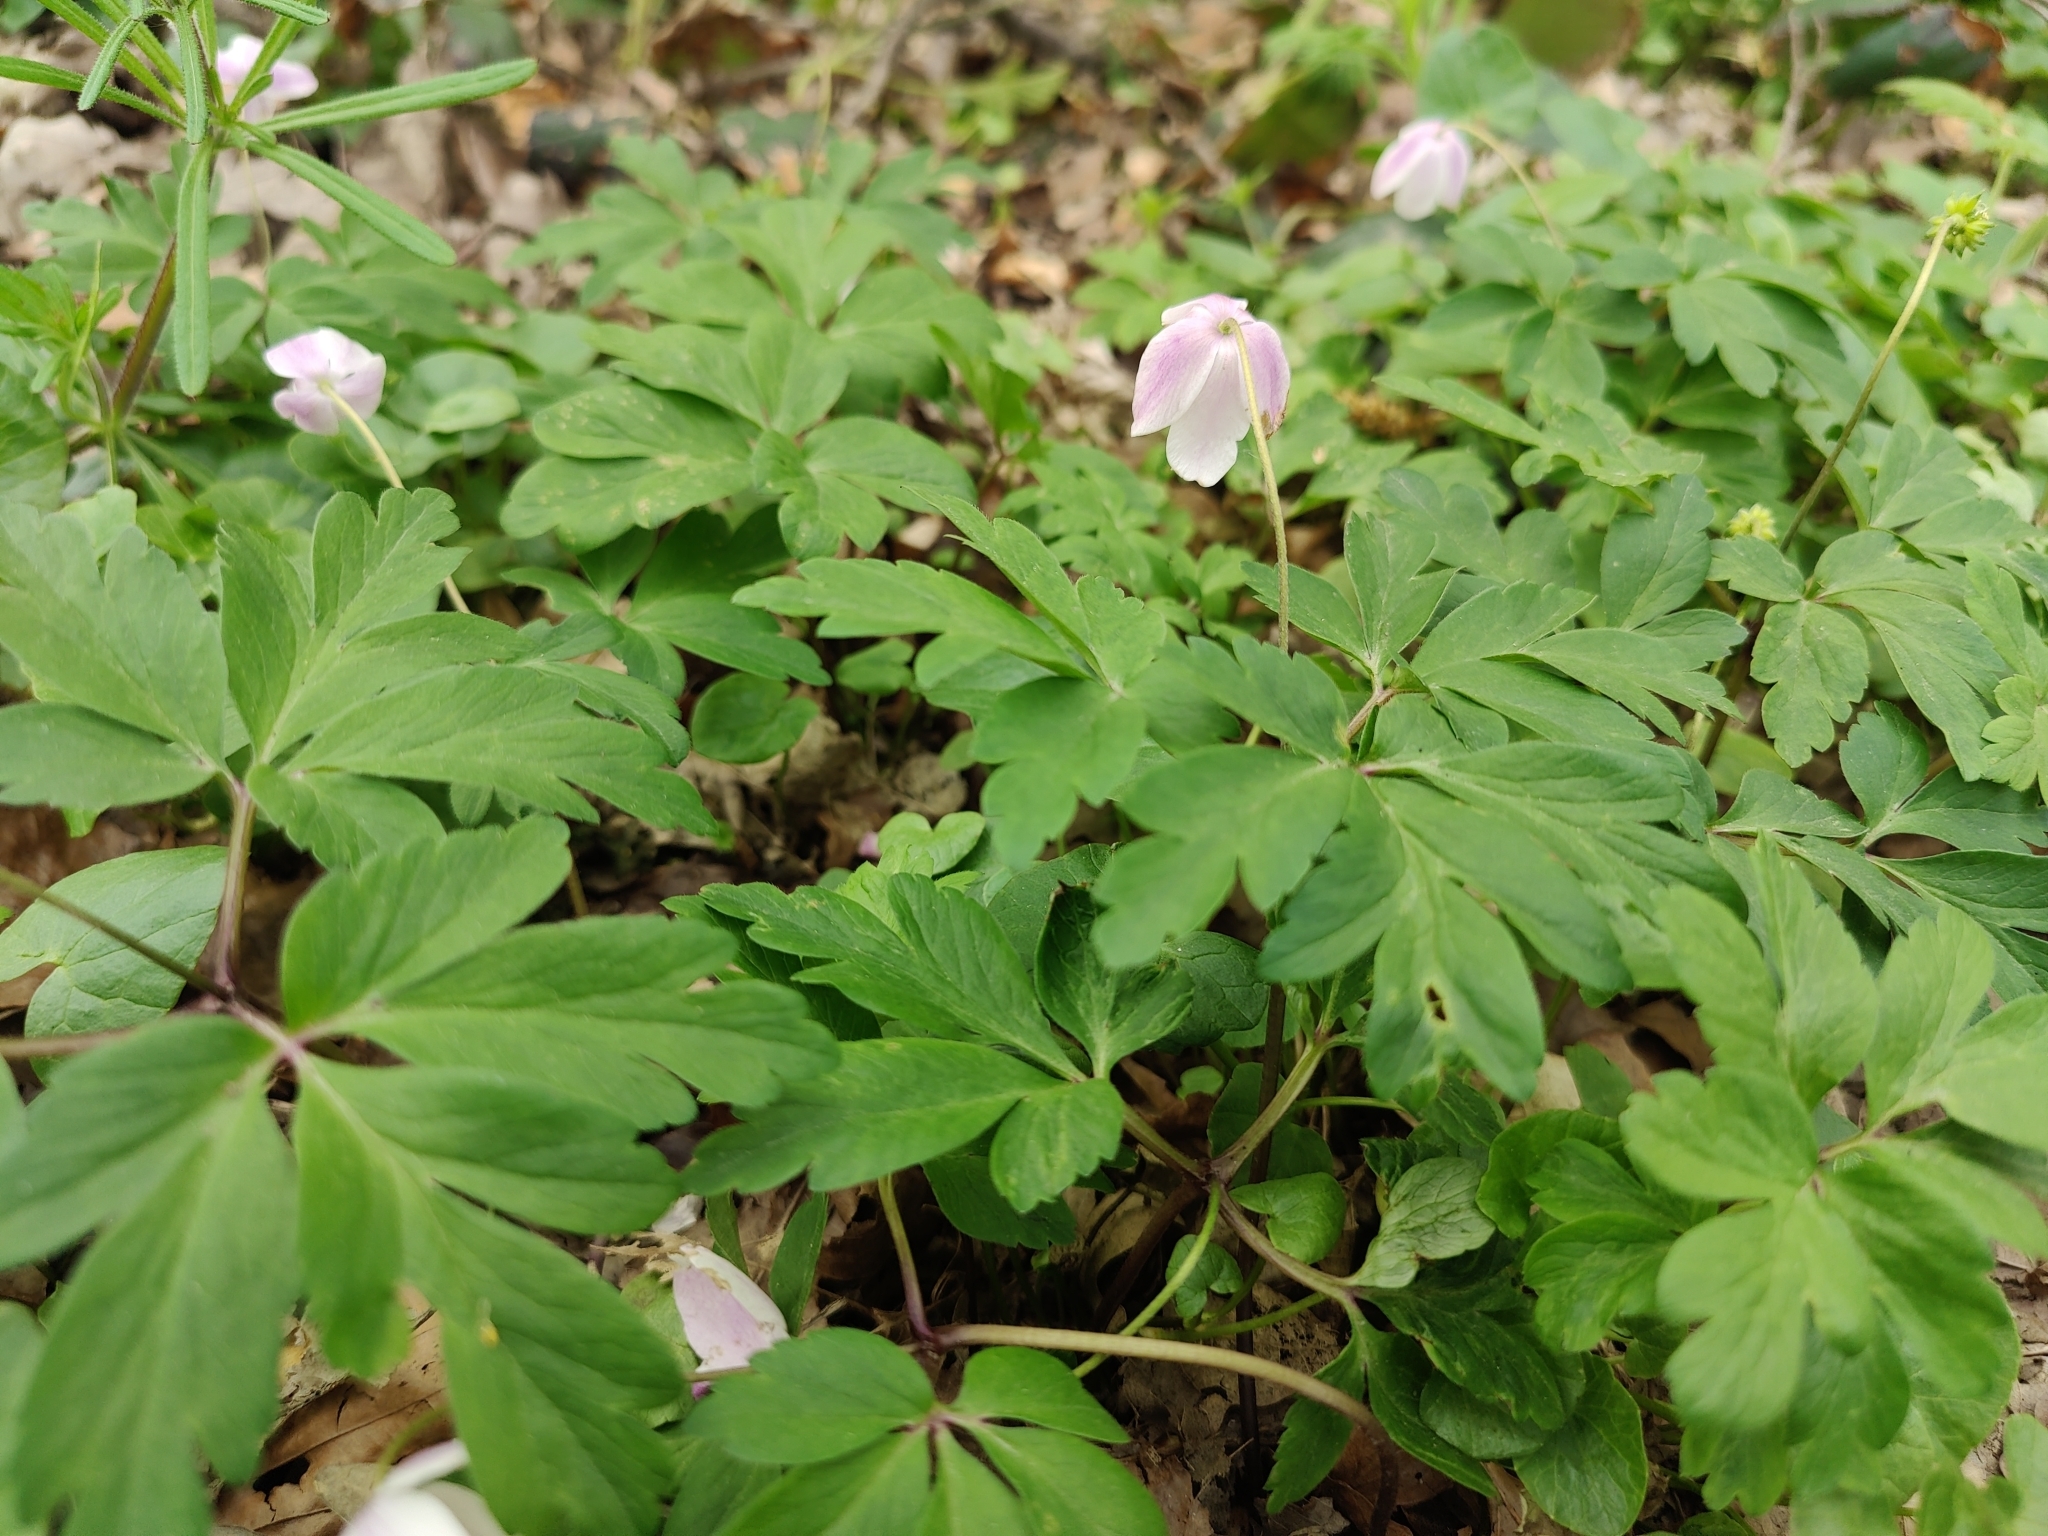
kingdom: Plantae
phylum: Tracheophyta
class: Magnoliopsida
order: Ranunculales
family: Ranunculaceae
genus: Anemone
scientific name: Anemone nemorosa
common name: Wood anemone
